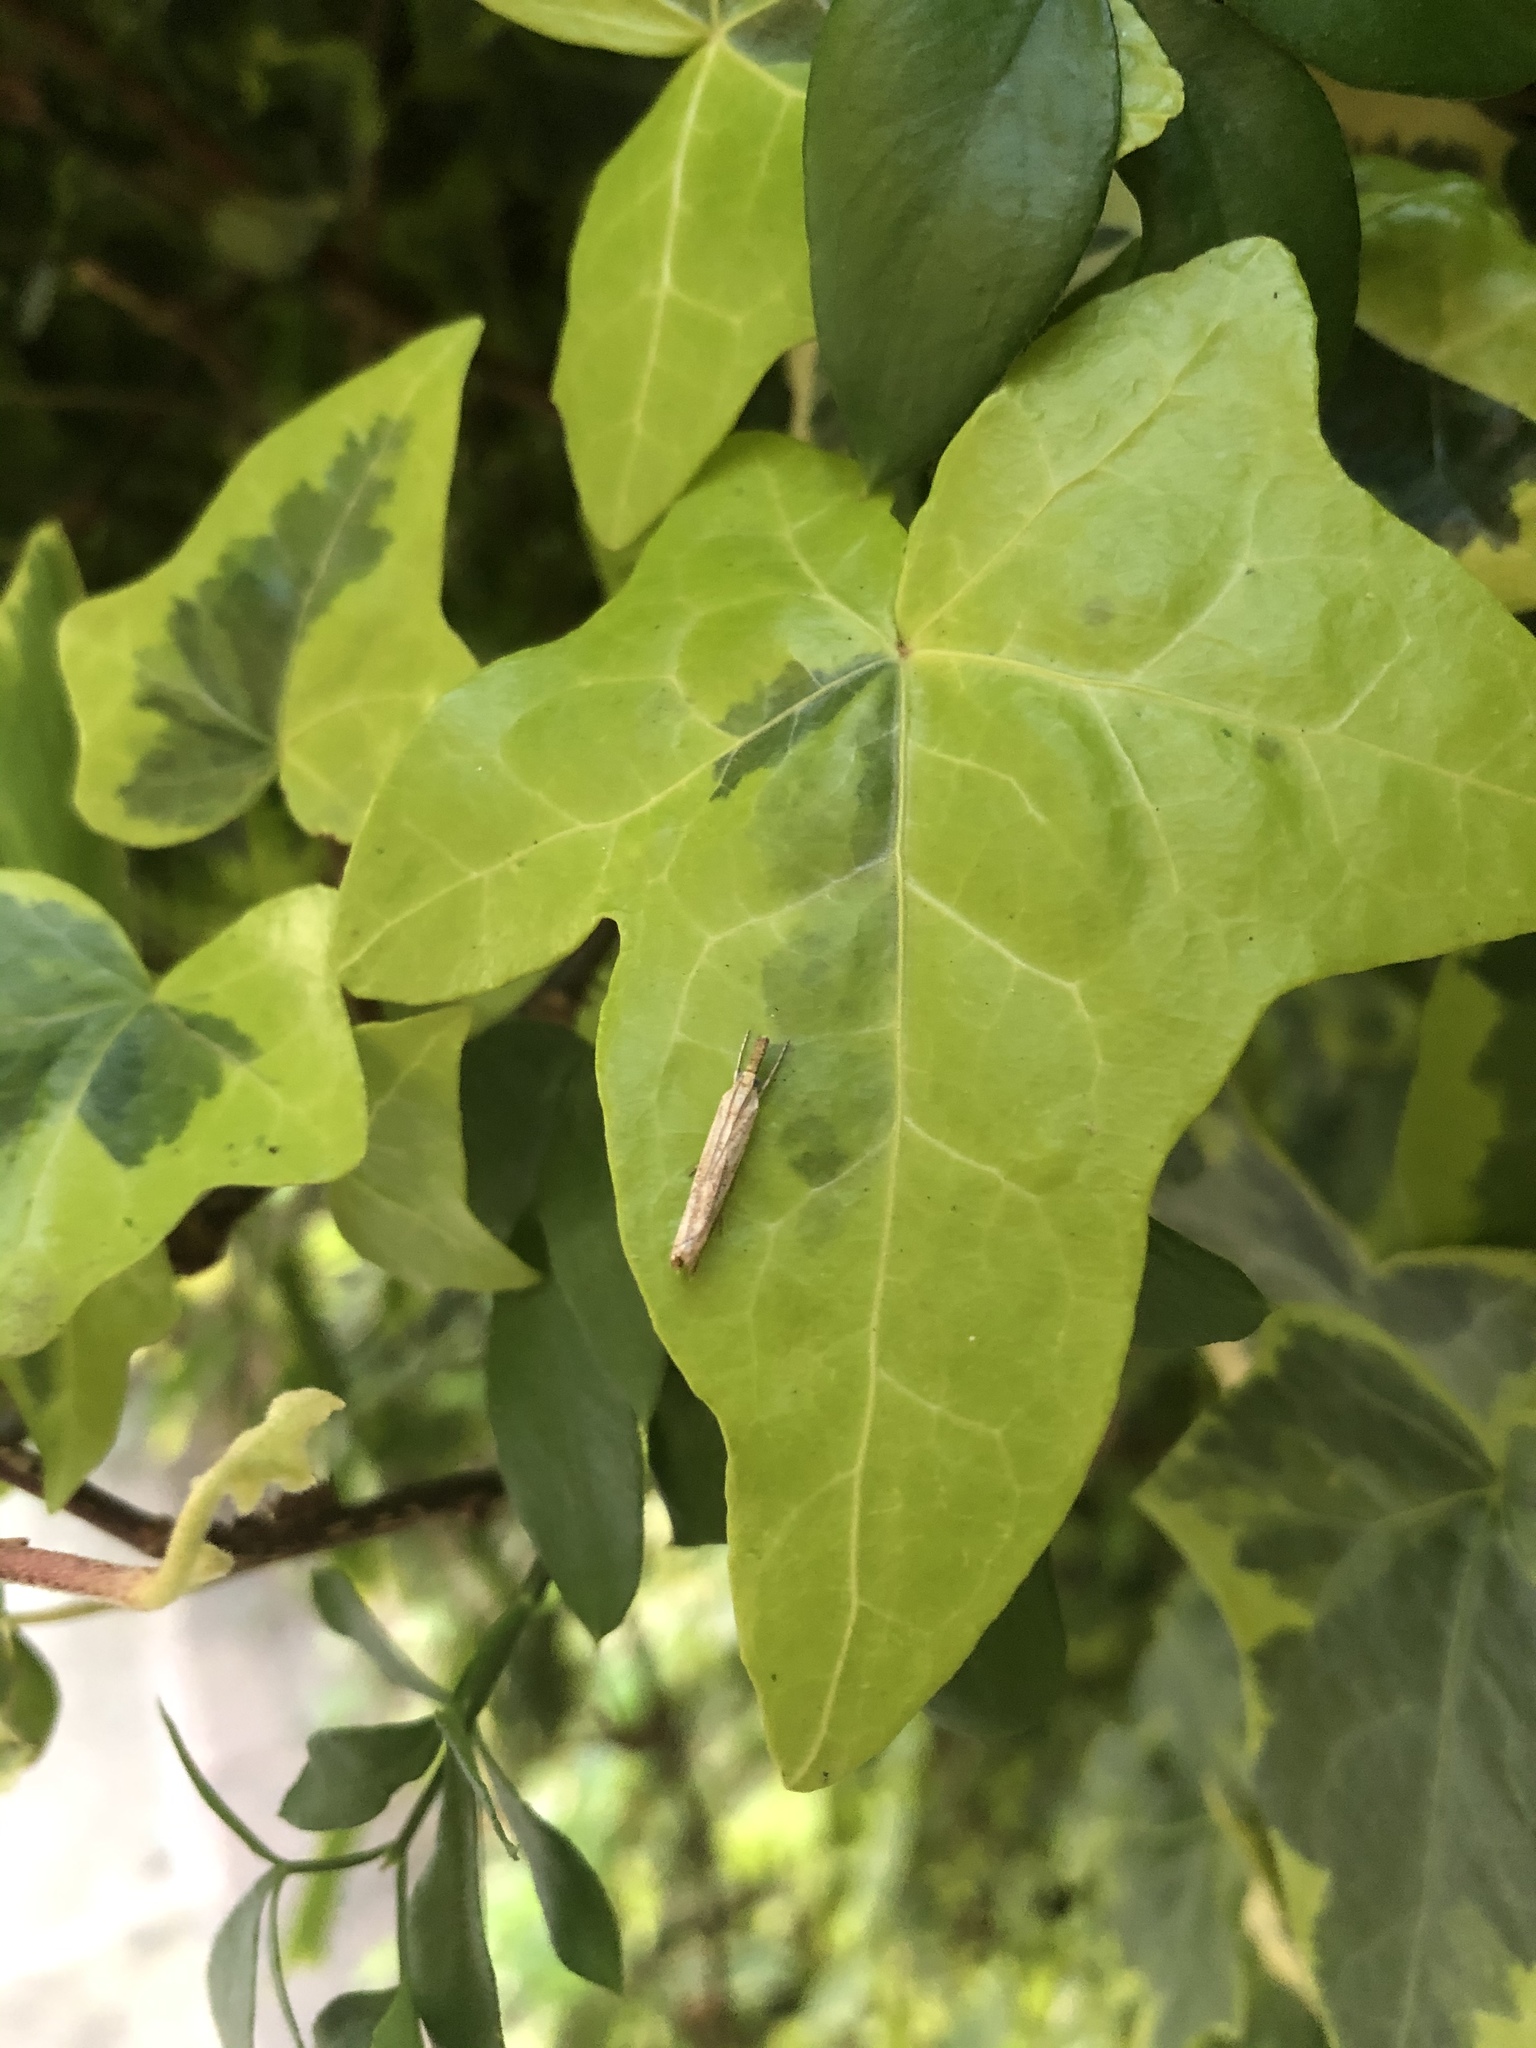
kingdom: Animalia
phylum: Arthropoda
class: Insecta
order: Lepidoptera
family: Crambidae
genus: Agriphila
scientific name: Agriphila tristellus
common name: Common grass-veneer
